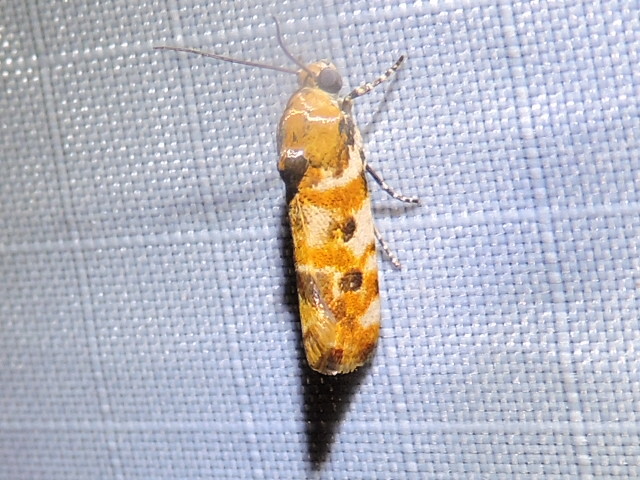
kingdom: Animalia
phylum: Arthropoda
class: Insecta
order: Lepidoptera
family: Noctuidae
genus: Spragueia
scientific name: Spragueia jaguaralis
